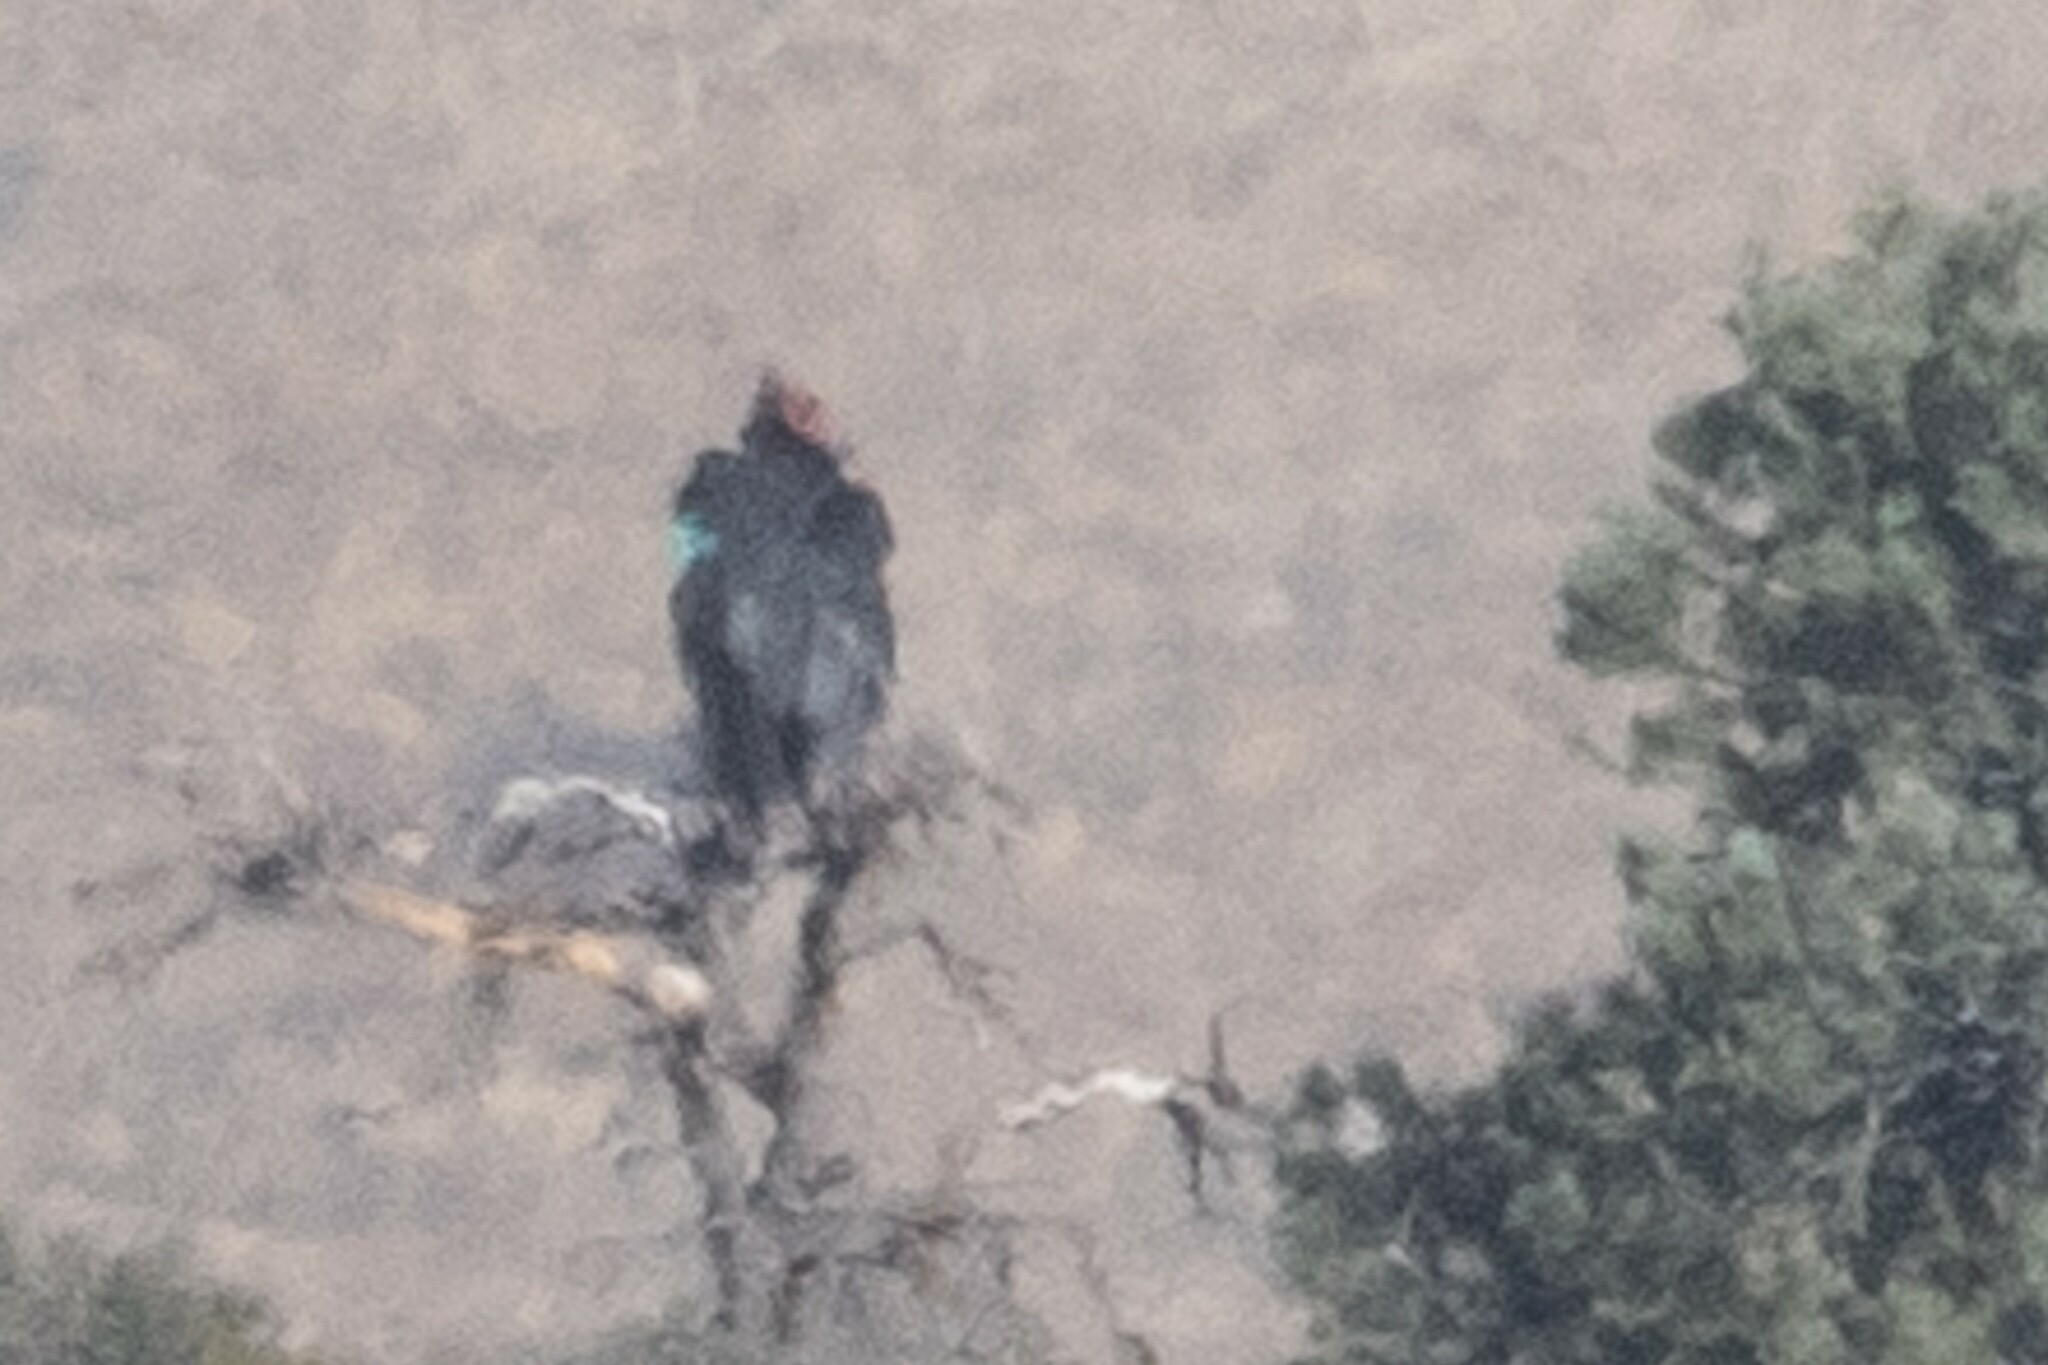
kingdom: Animalia
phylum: Chordata
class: Aves
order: Accipitriformes
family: Cathartidae
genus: Gymnogyps
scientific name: Gymnogyps californianus
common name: California condor
